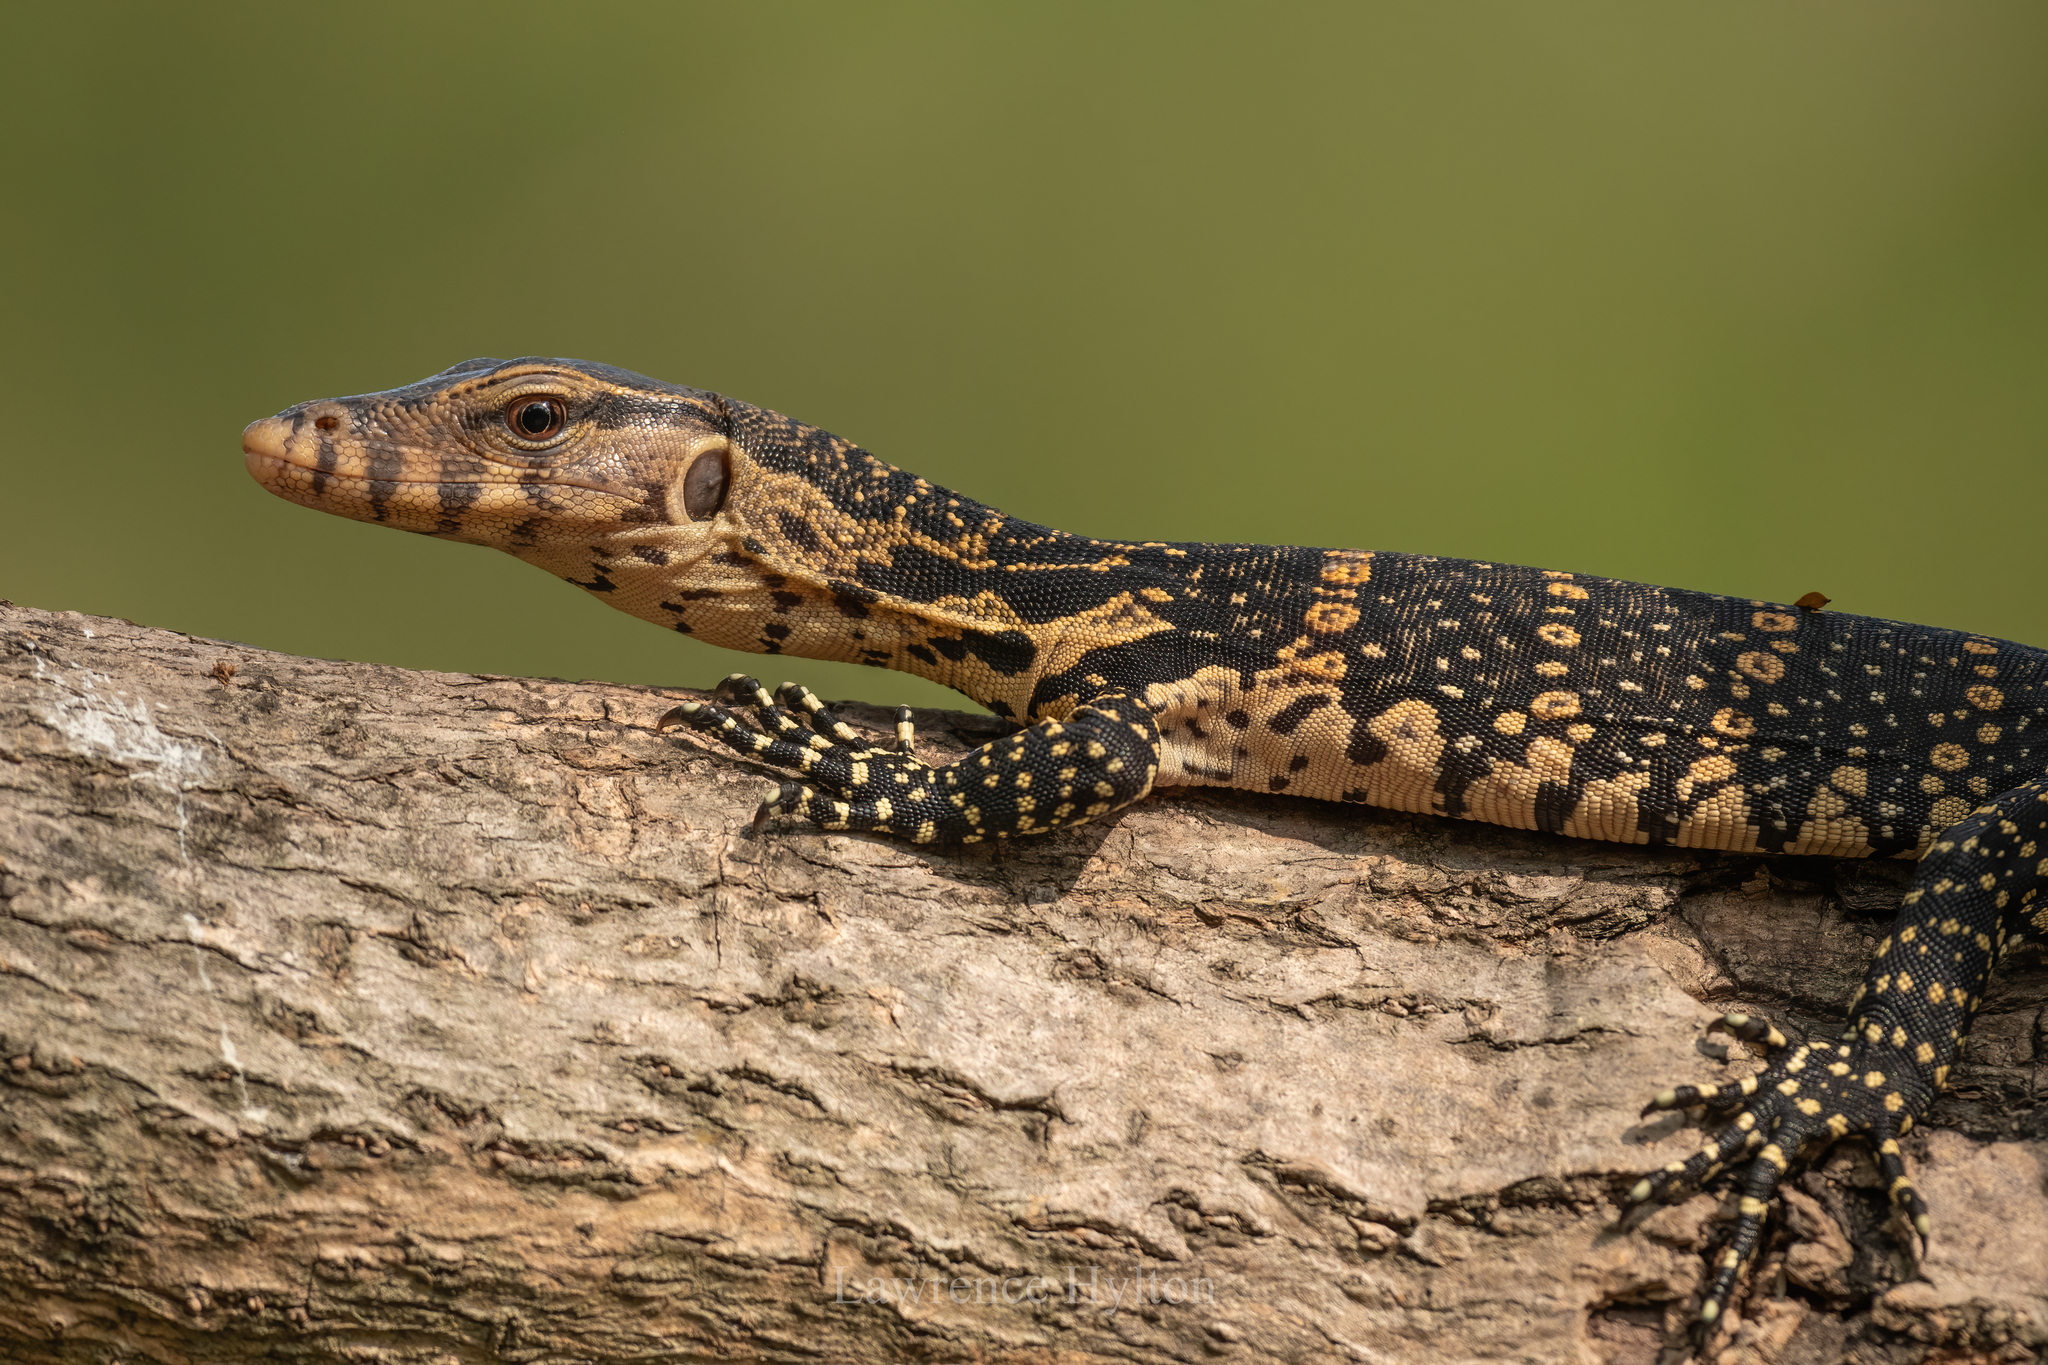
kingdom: Animalia
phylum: Chordata
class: Squamata
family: Varanidae
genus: Varanus
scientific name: Varanus salvator
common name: Common water monitor
